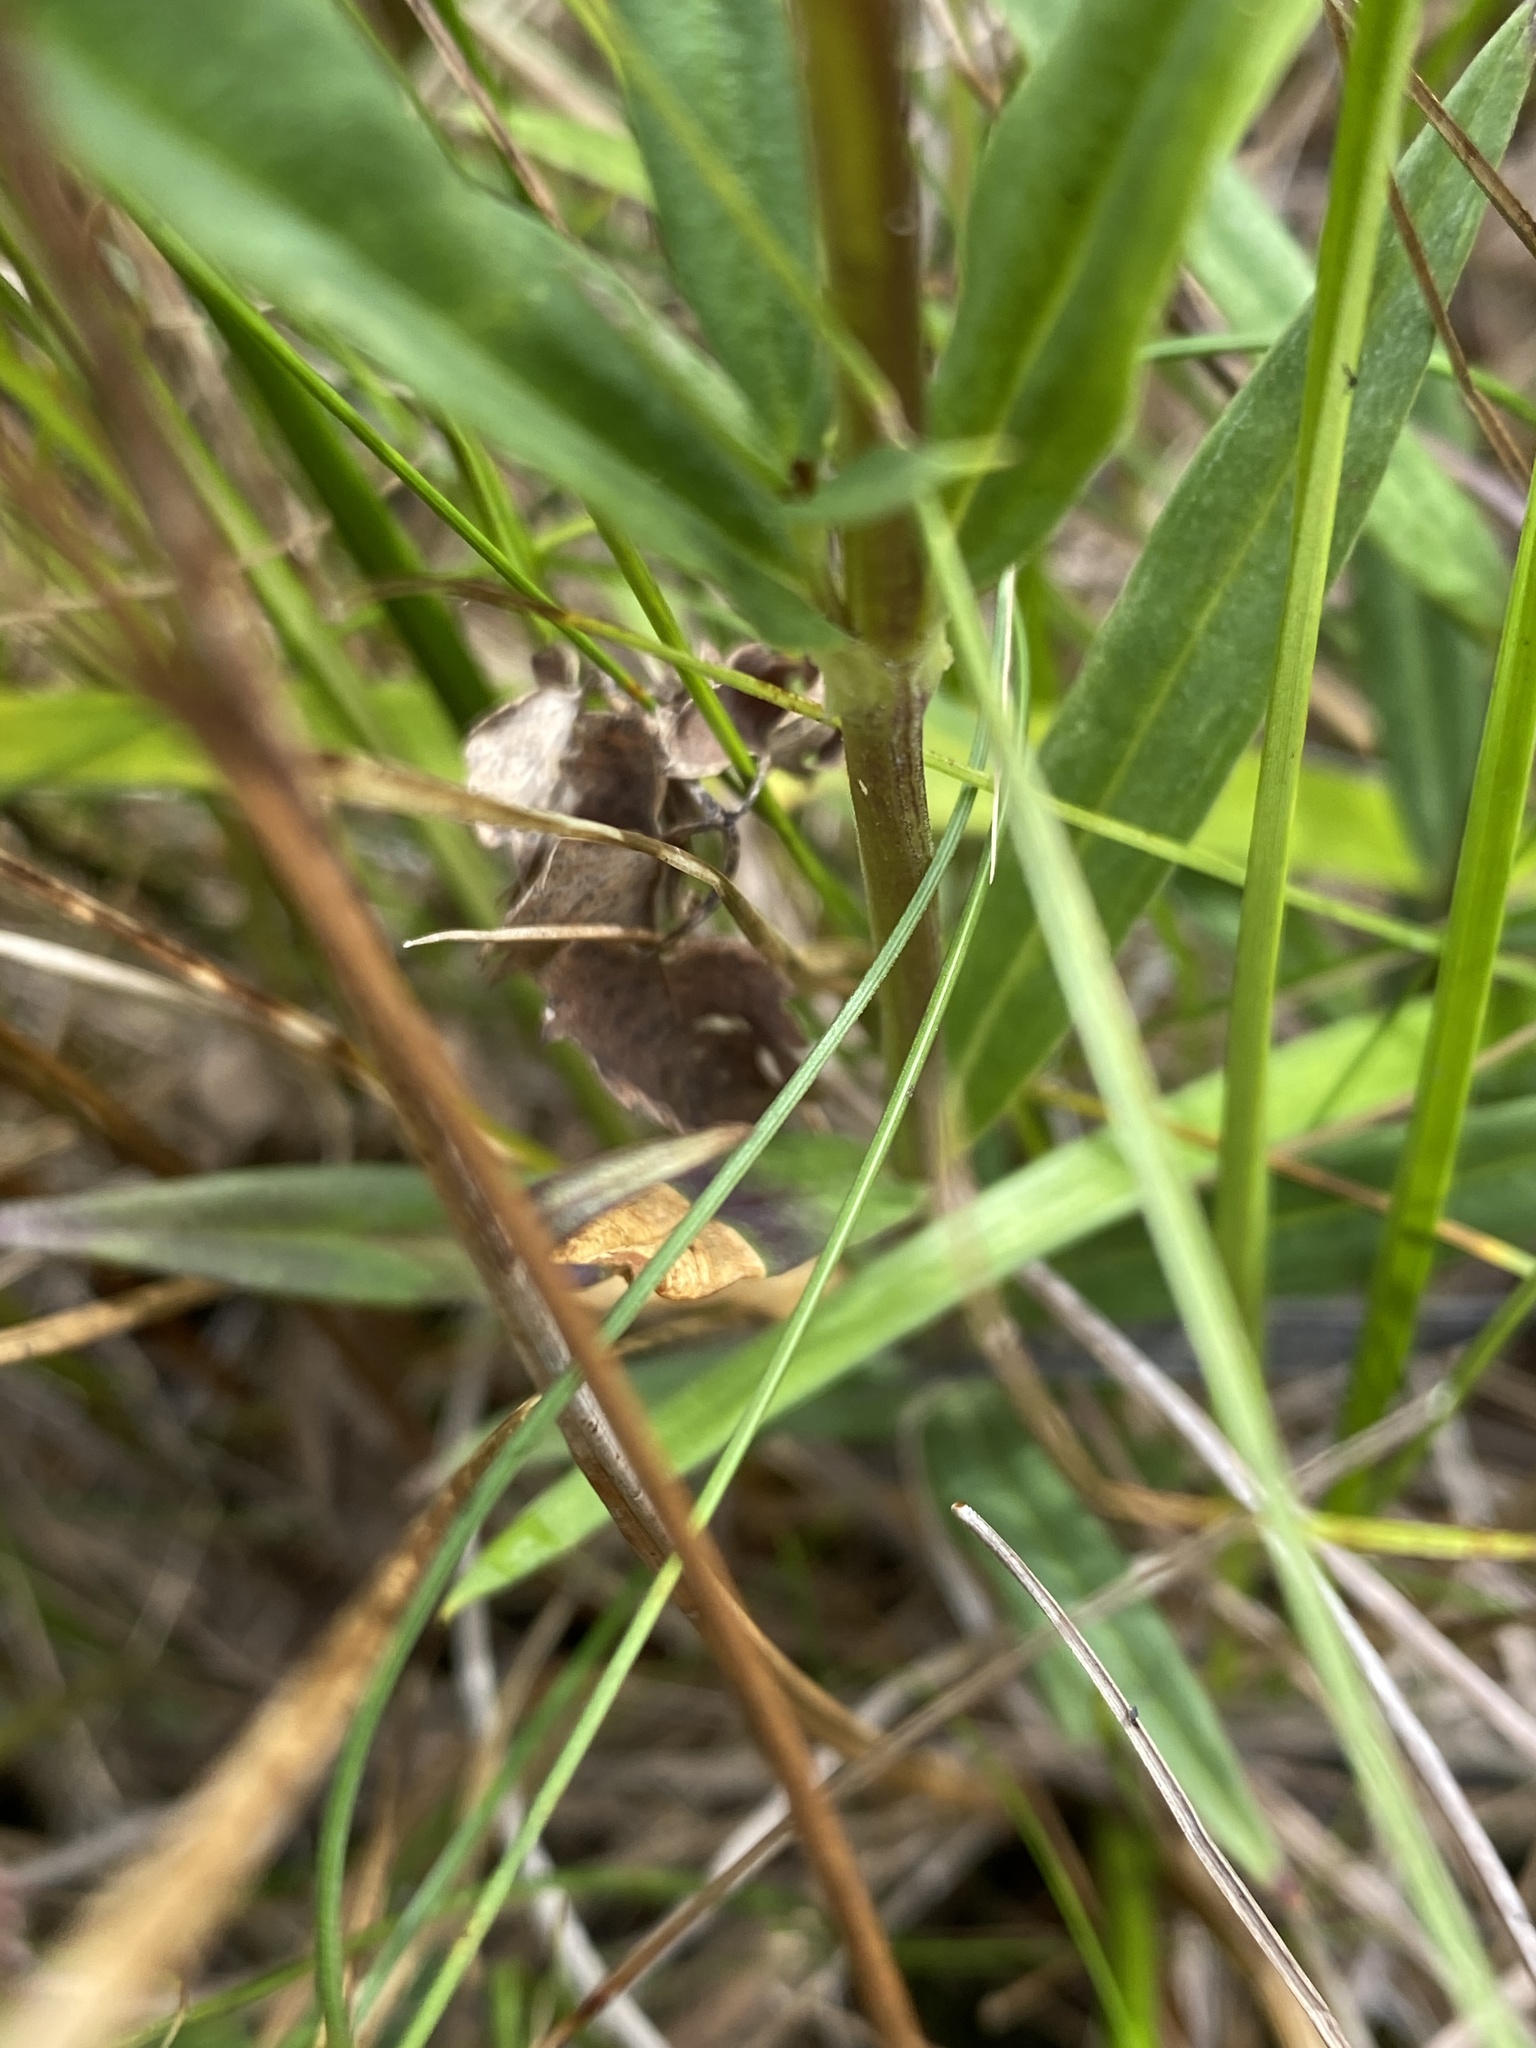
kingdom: Plantae
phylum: Tracheophyta
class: Magnoliopsida
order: Gentianales
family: Gentianaceae
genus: Gentiana
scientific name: Gentiana saponaria
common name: Soapwort gentian
